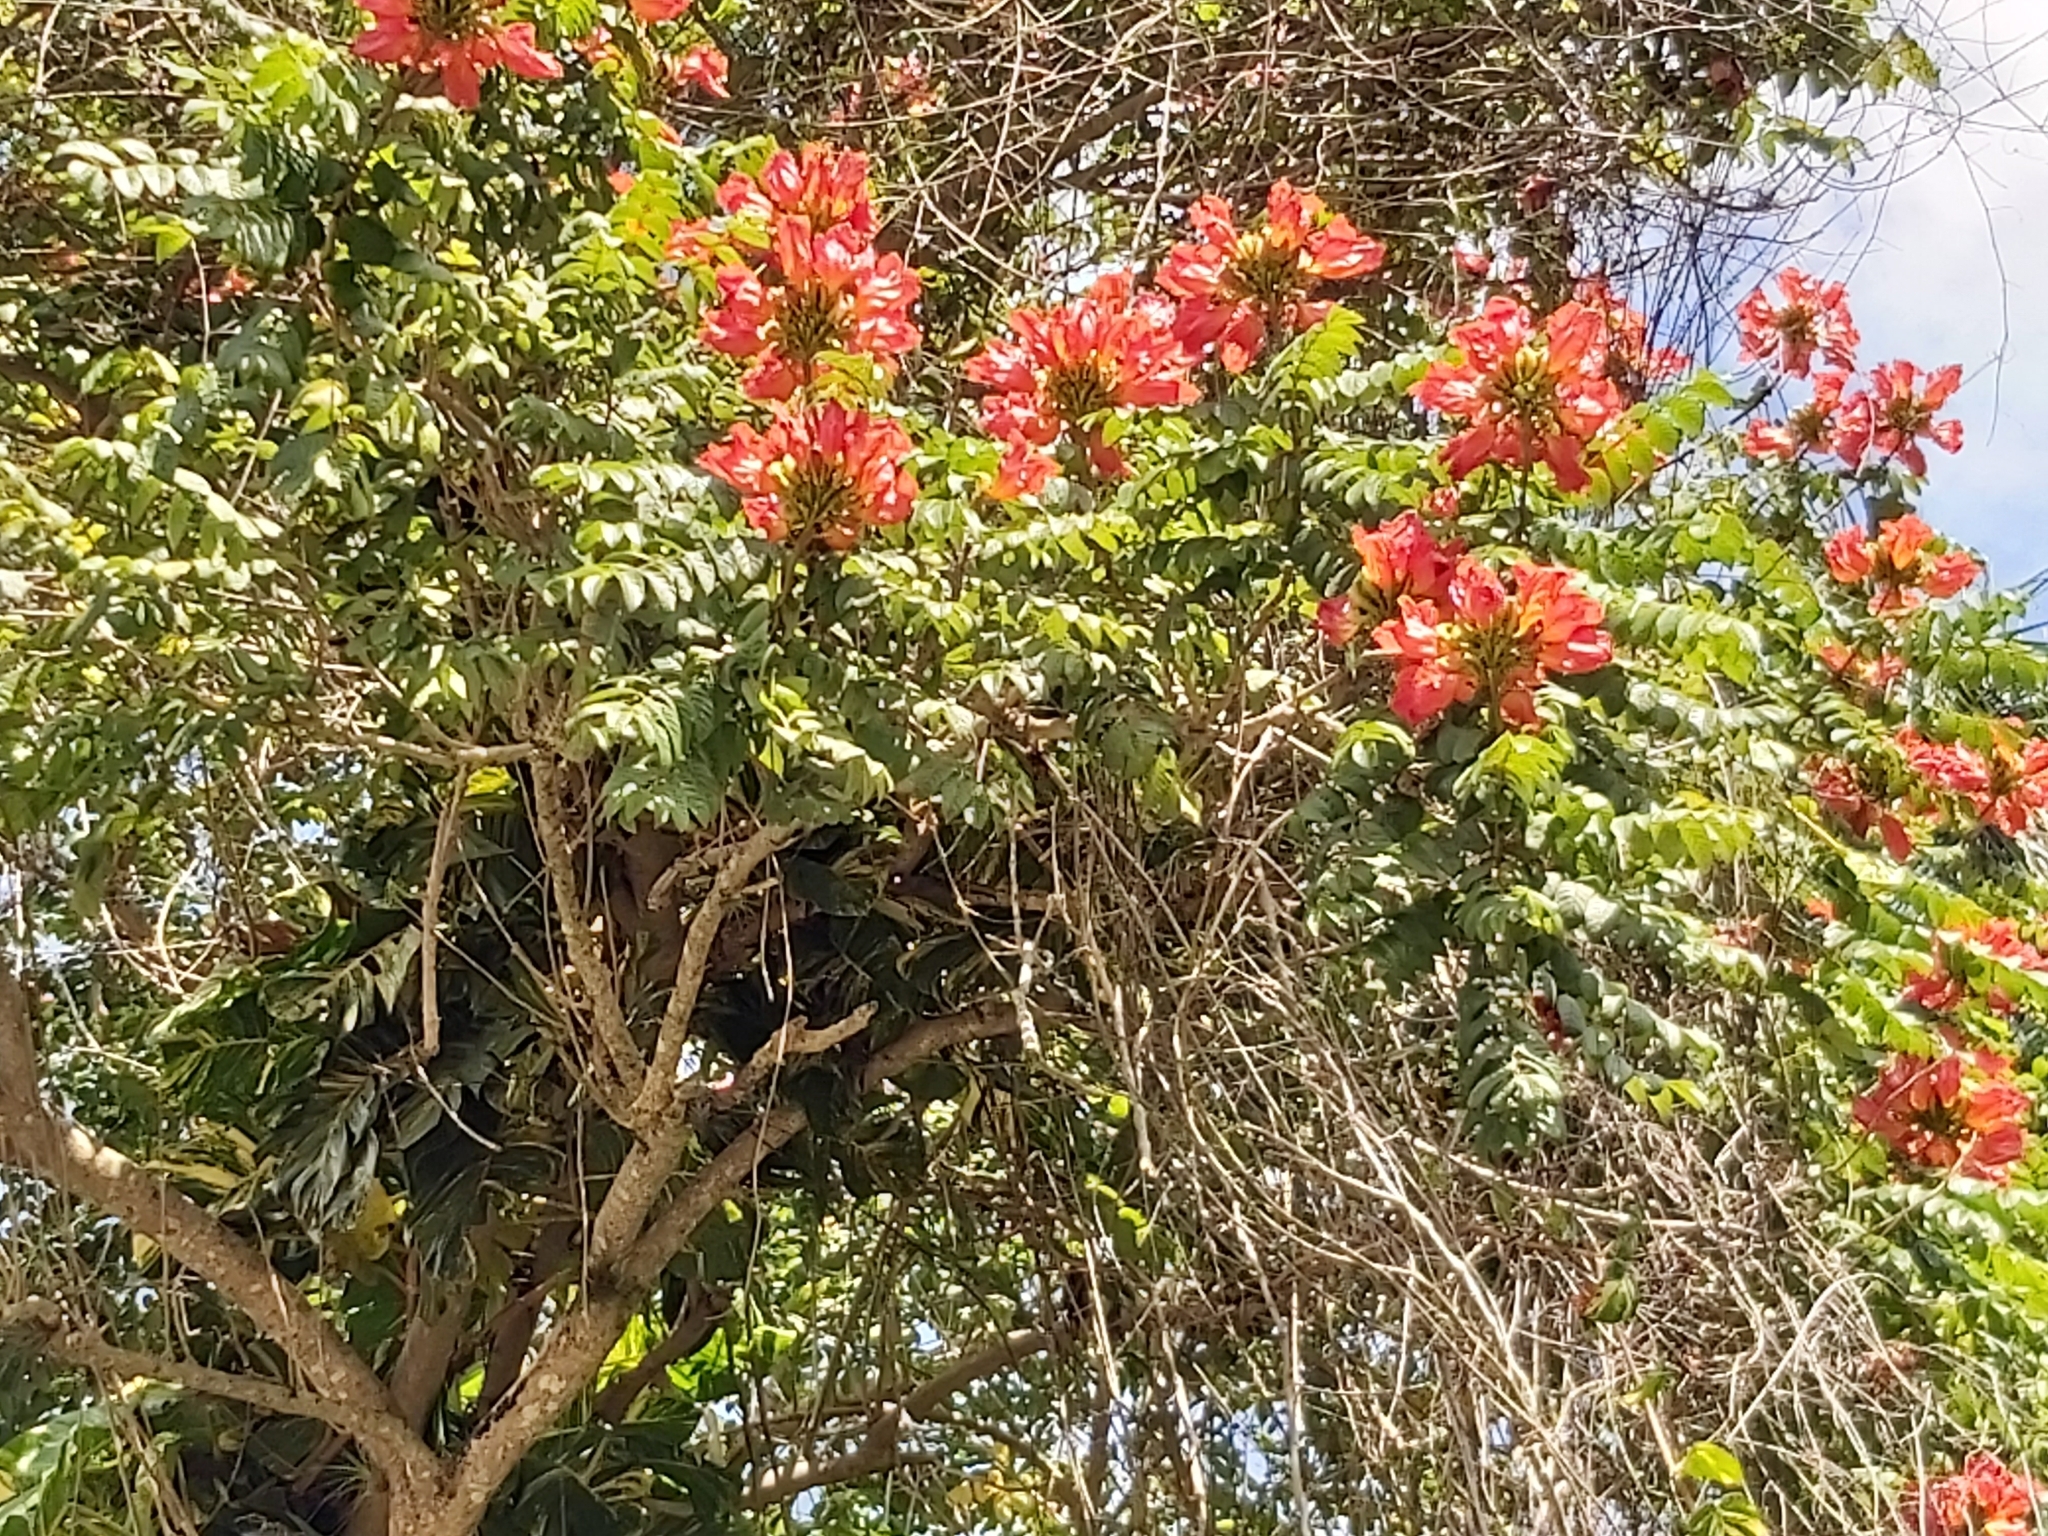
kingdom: Plantae
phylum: Tracheophyta
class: Magnoliopsida
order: Lamiales
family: Bignoniaceae
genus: Spathodea
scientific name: Spathodea campanulata
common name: African tuliptree
